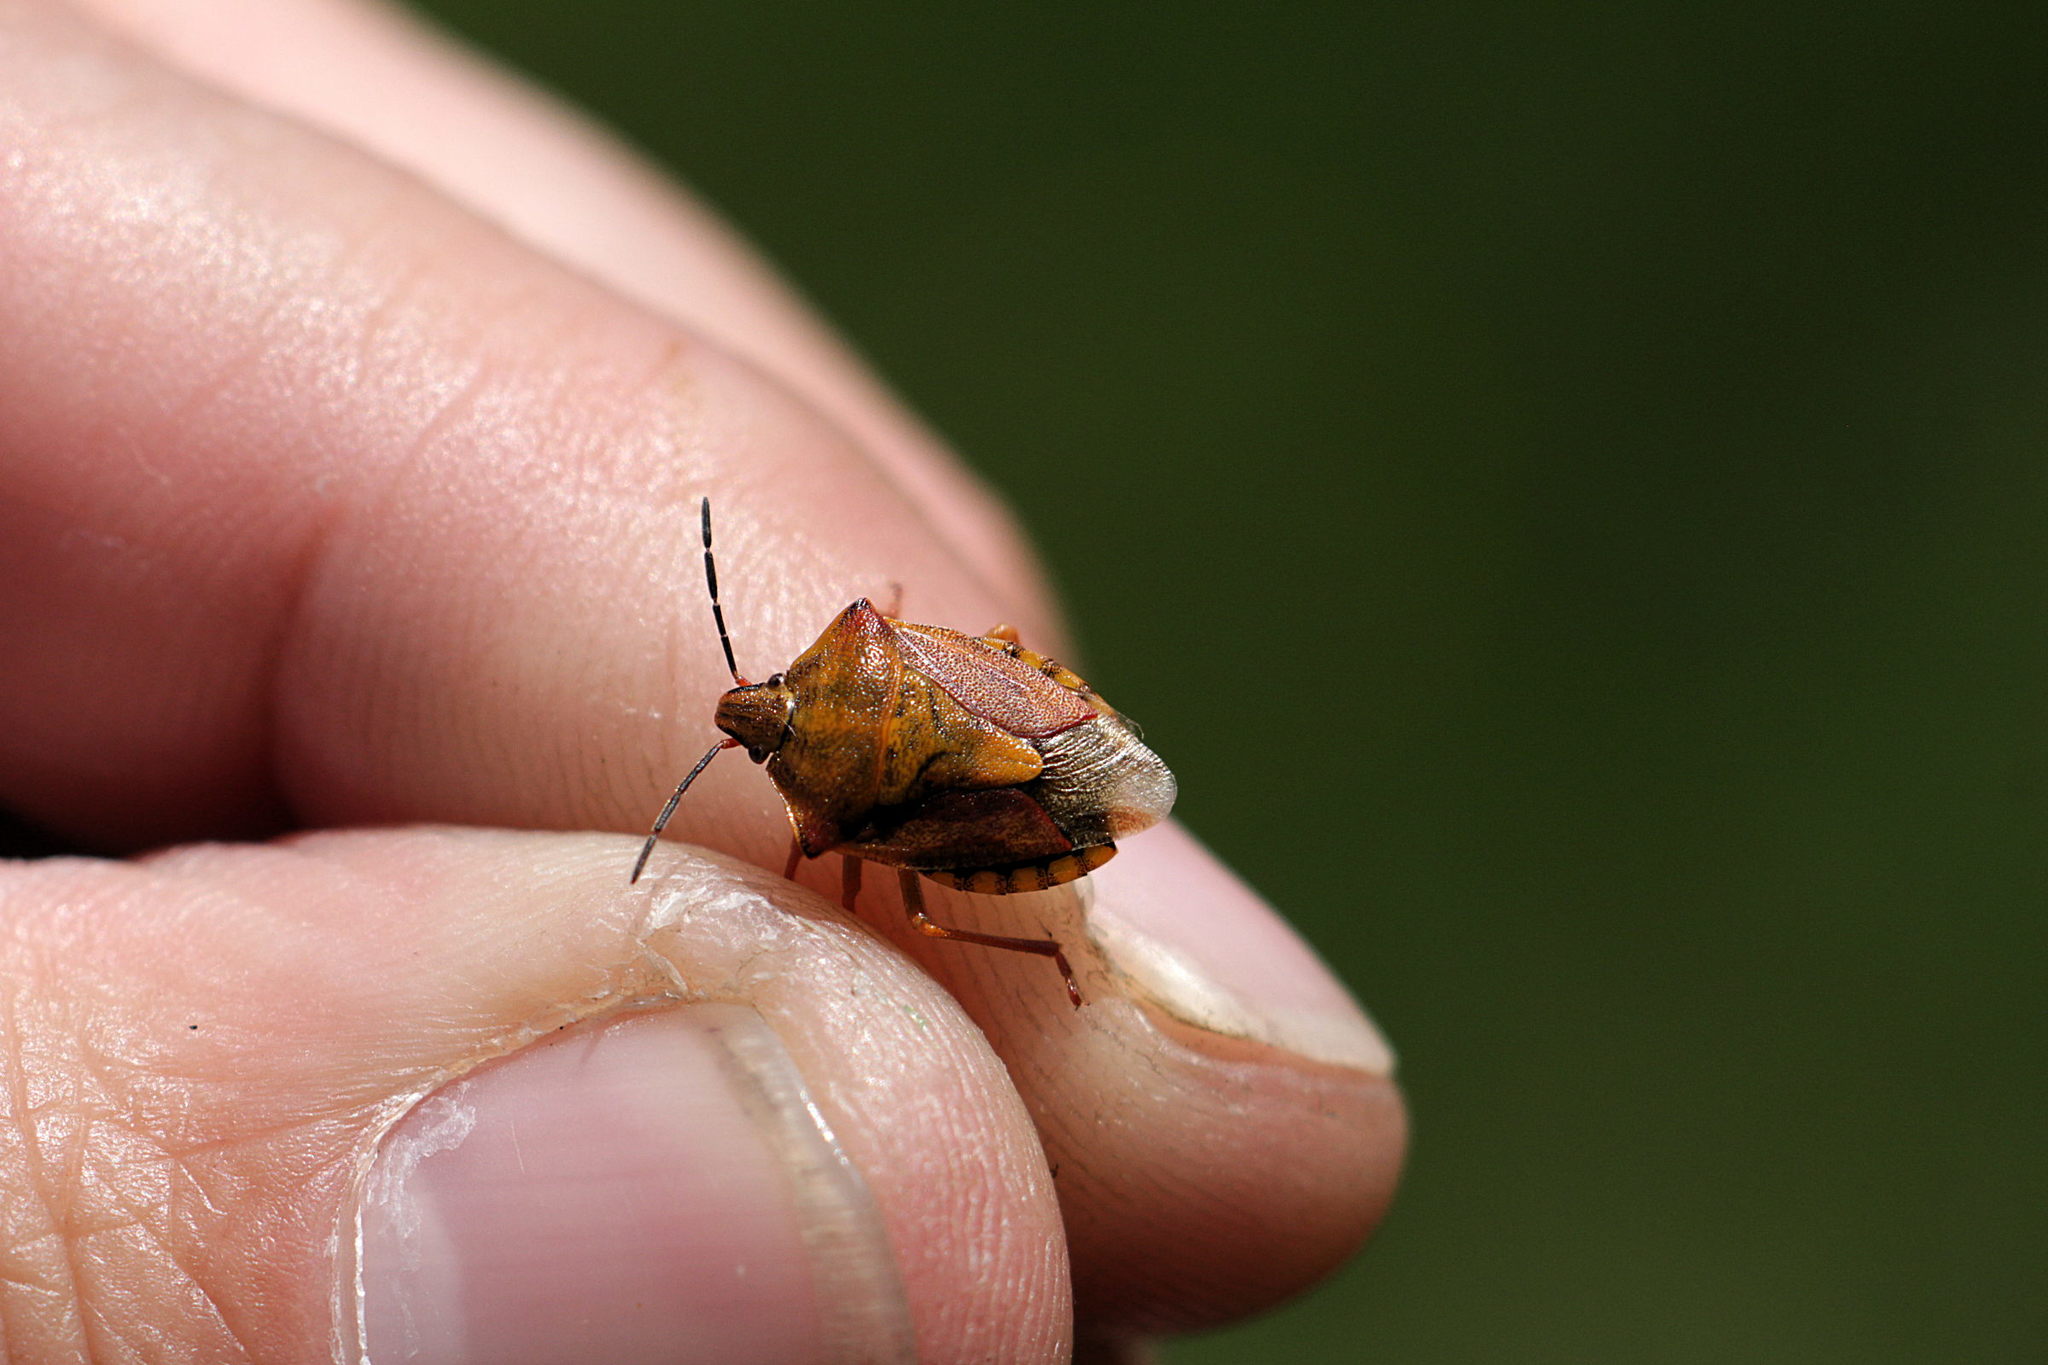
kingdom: Animalia
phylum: Arthropoda
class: Insecta
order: Hemiptera
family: Pentatomidae
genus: Carpocoris
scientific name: Carpocoris purpureipennis
